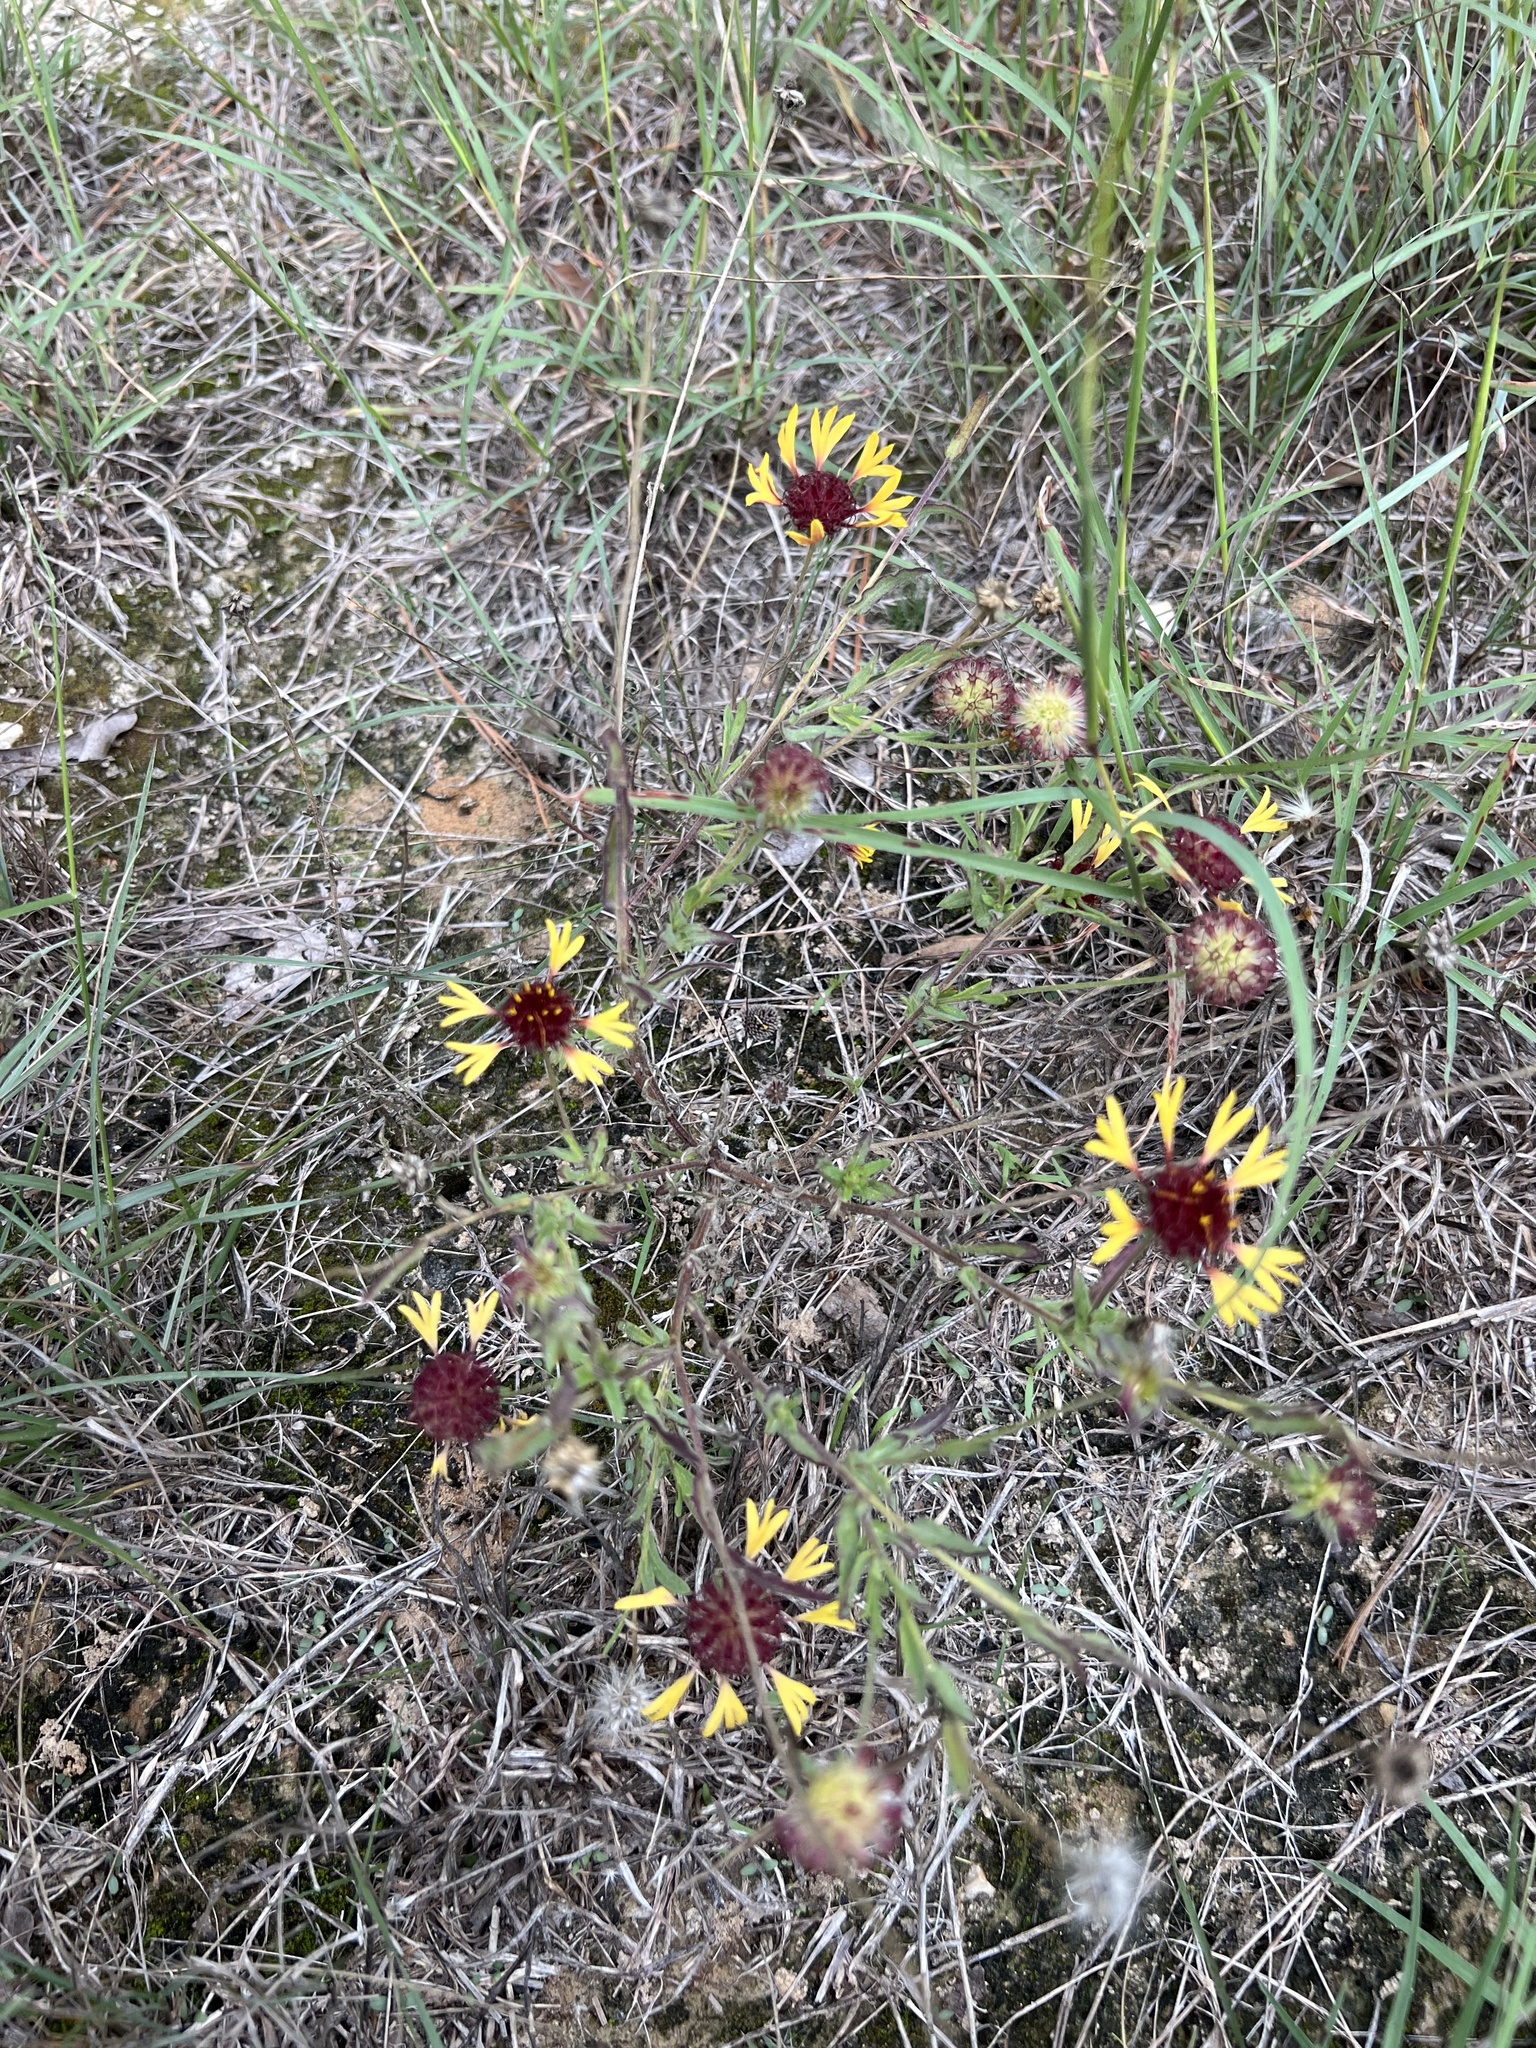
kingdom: Plantae
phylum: Tracheophyta
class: Magnoliopsida
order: Asterales
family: Asteraceae
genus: Gaillardia
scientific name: Gaillardia aestivalis
